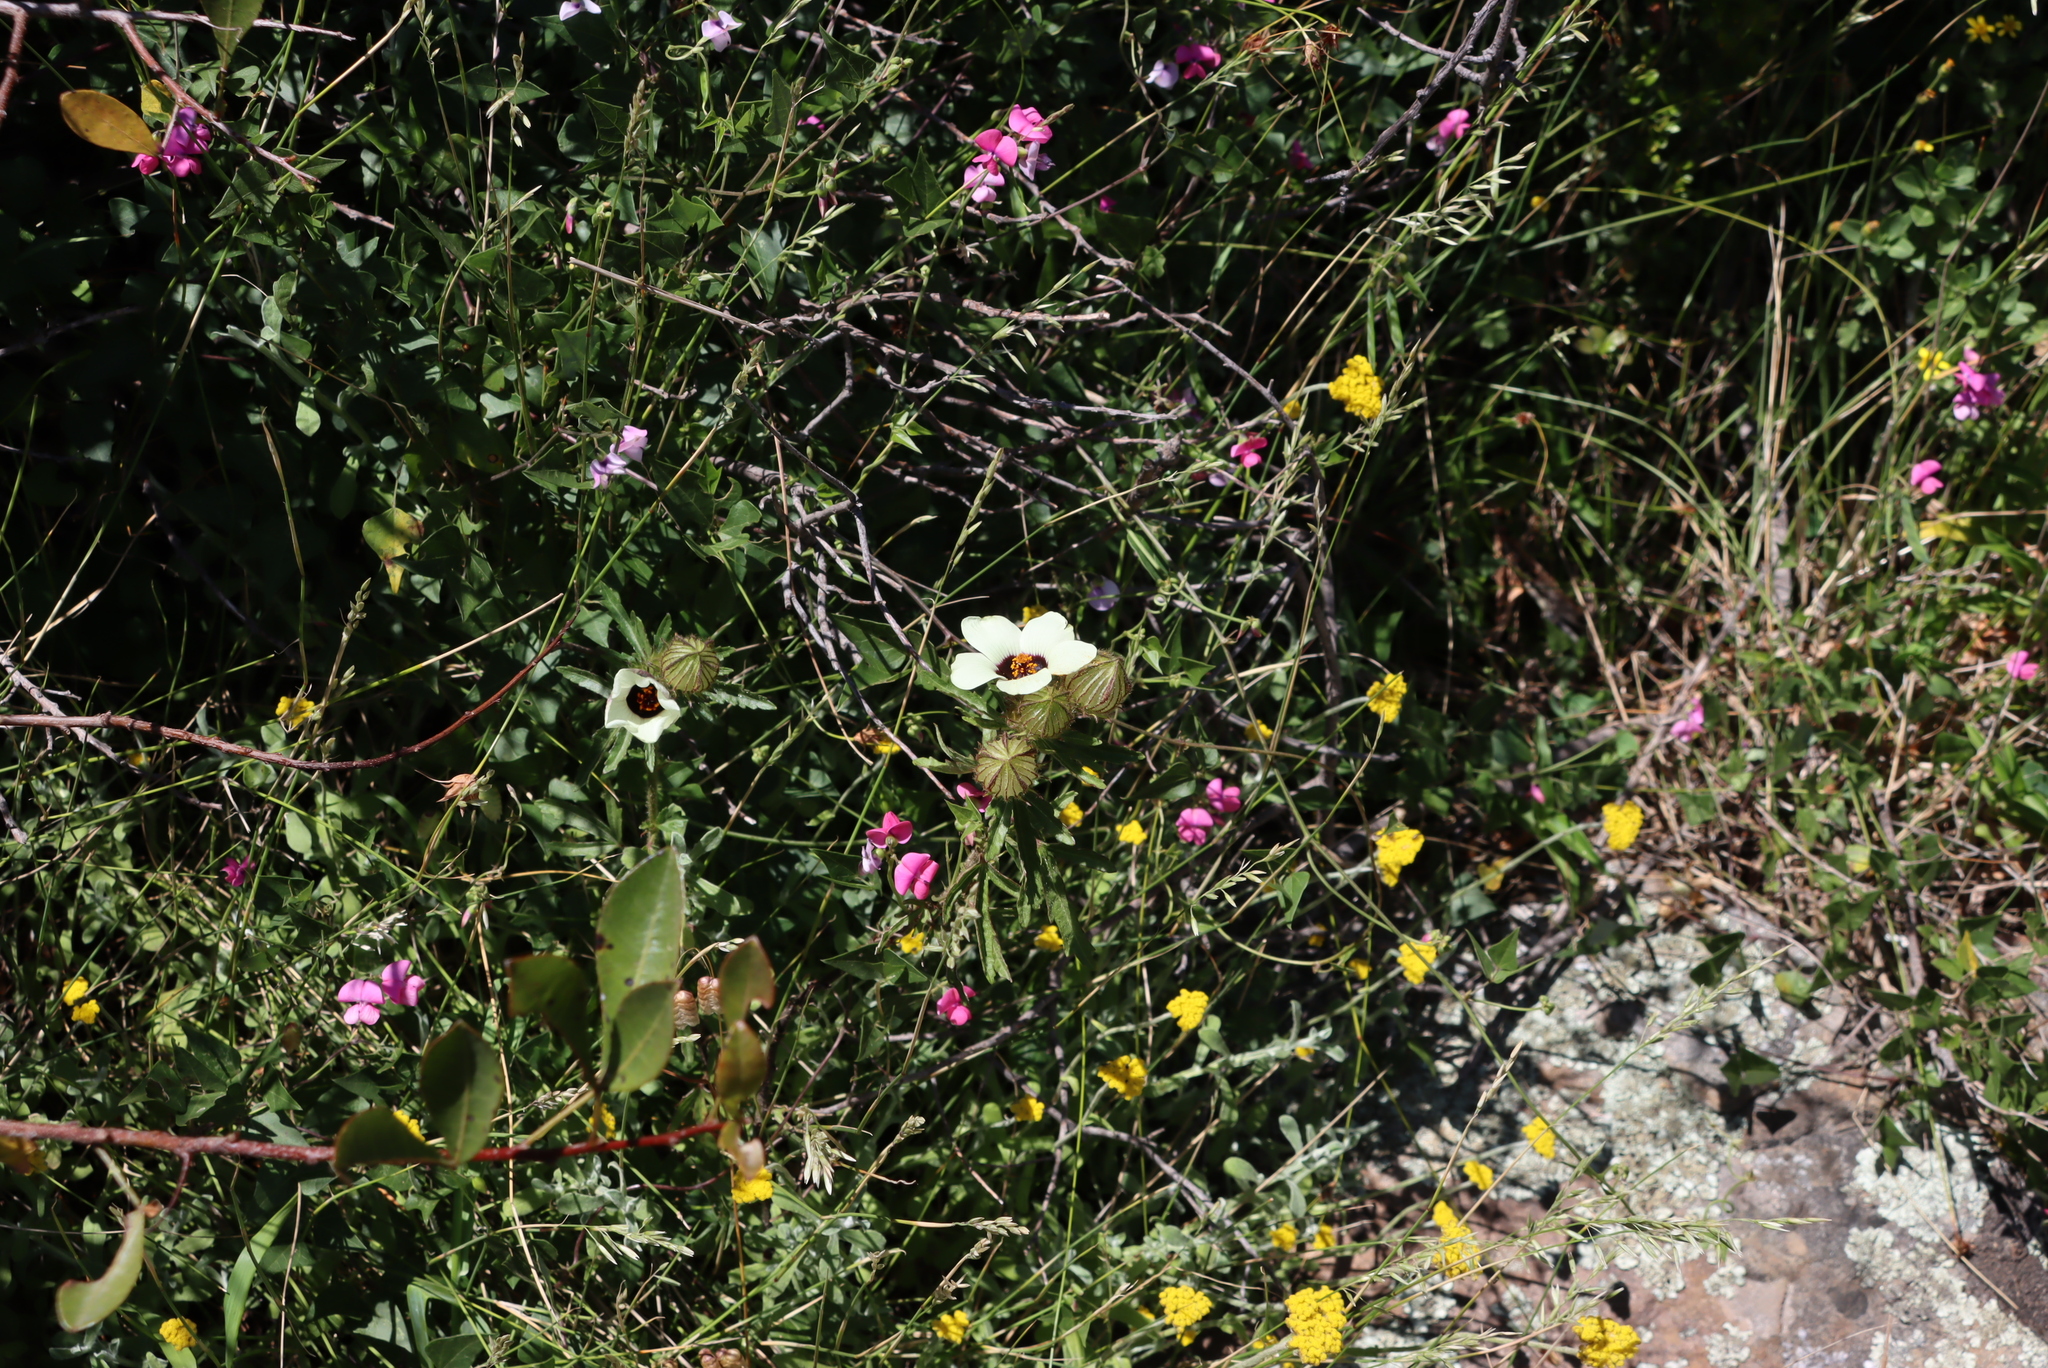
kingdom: Plantae
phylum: Tracheophyta
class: Magnoliopsida
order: Malvales
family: Malvaceae
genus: Hibiscus
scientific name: Hibiscus trionum
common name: Bladder ketmia
